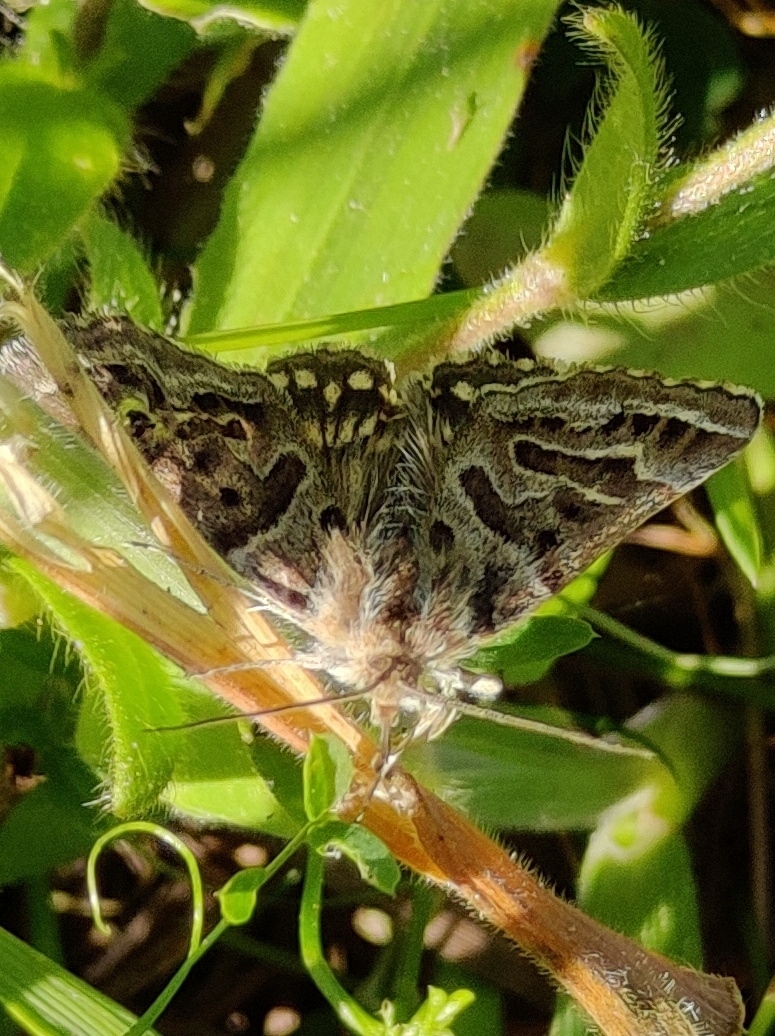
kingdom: Animalia
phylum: Arthropoda
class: Insecta
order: Lepidoptera
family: Erebidae
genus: Callistege
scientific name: Callistege mi
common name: Mother shipton
